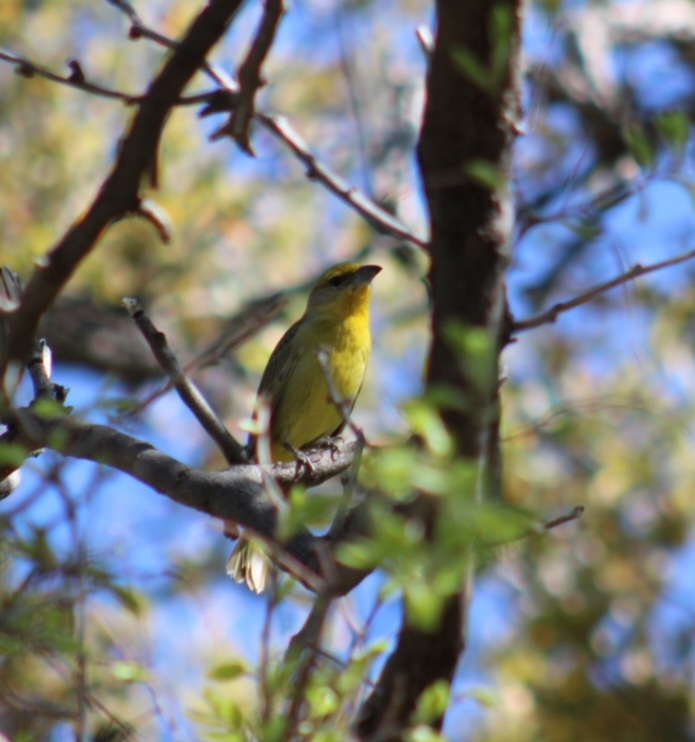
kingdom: Animalia
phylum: Chordata
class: Aves
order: Passeriformes
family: Cardinalidae
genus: Piranga
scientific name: Piranga flava
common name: Red tanager
